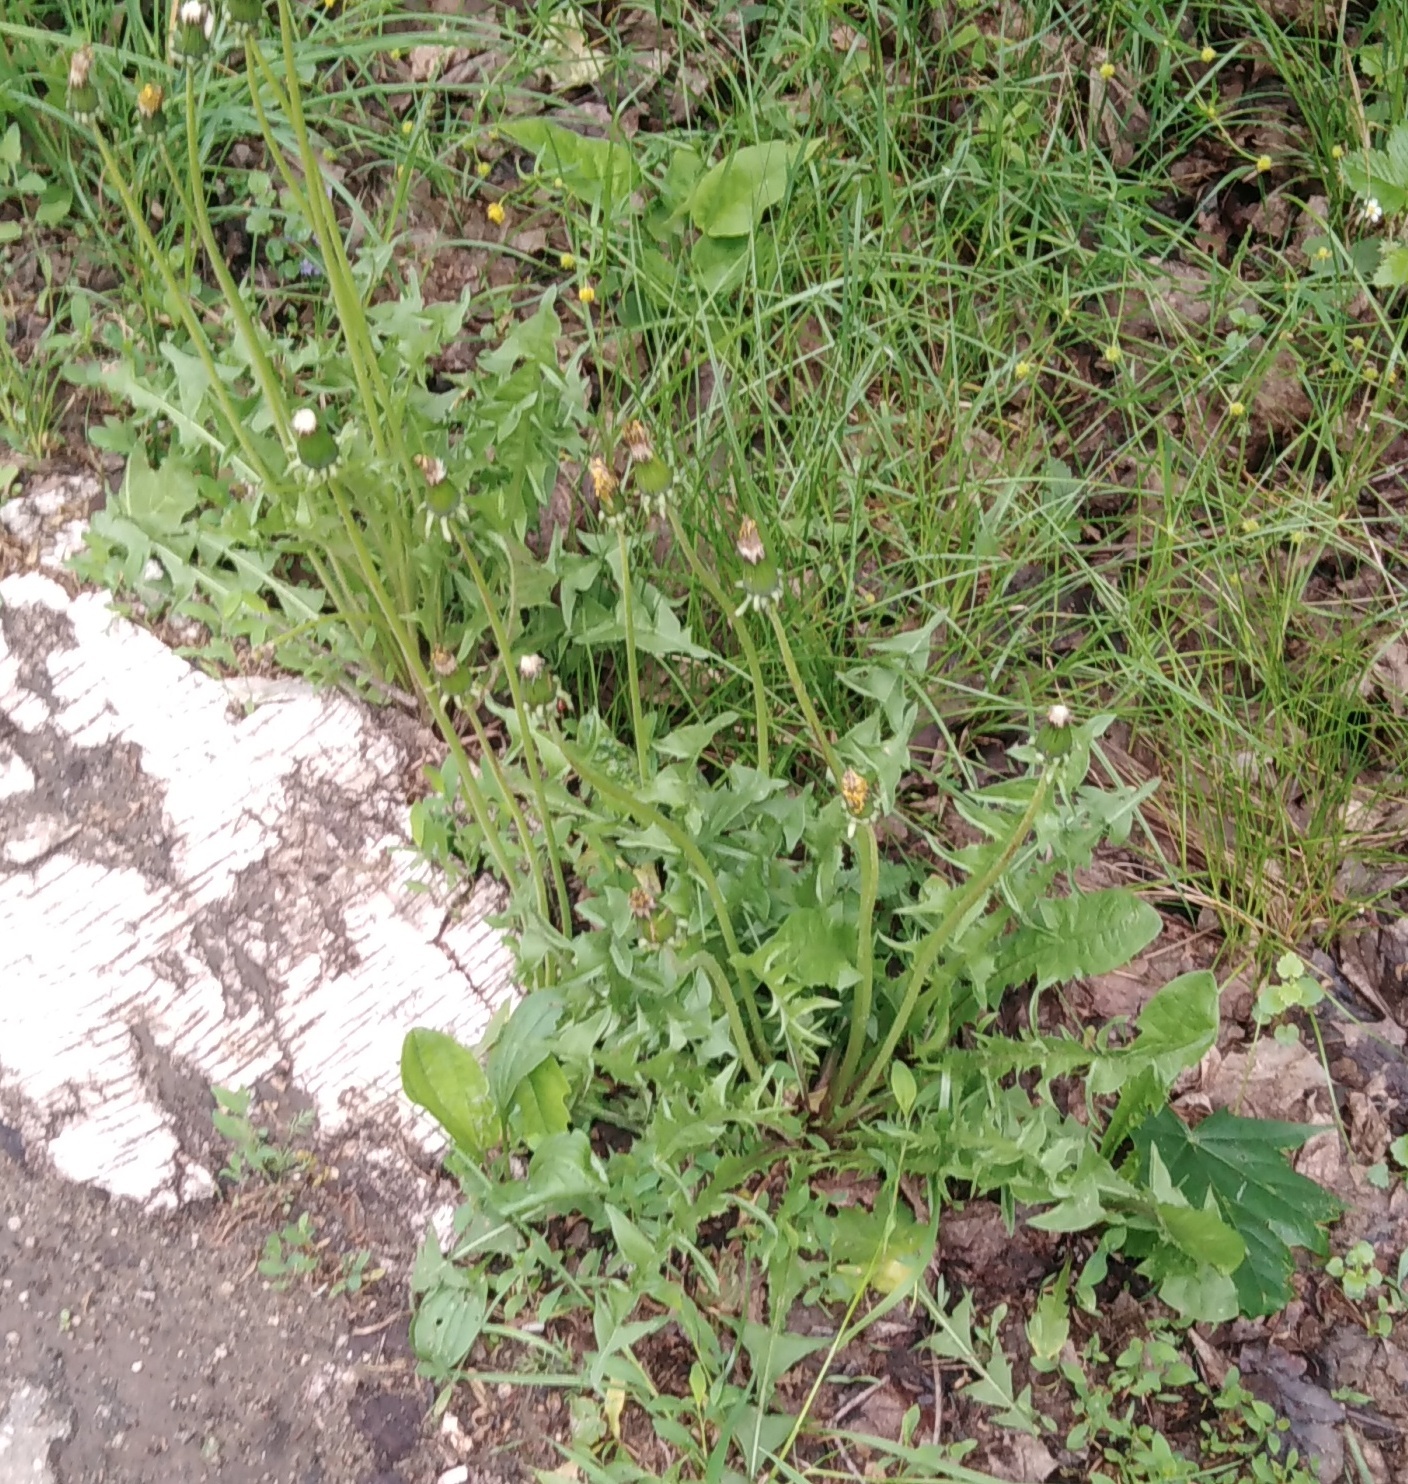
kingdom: Plantae
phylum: Tracheophyta
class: Magnoliopsida
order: Asterales
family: Asteraceae
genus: Taraxacum
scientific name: Taraxacum officinale
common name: Common dandelion
